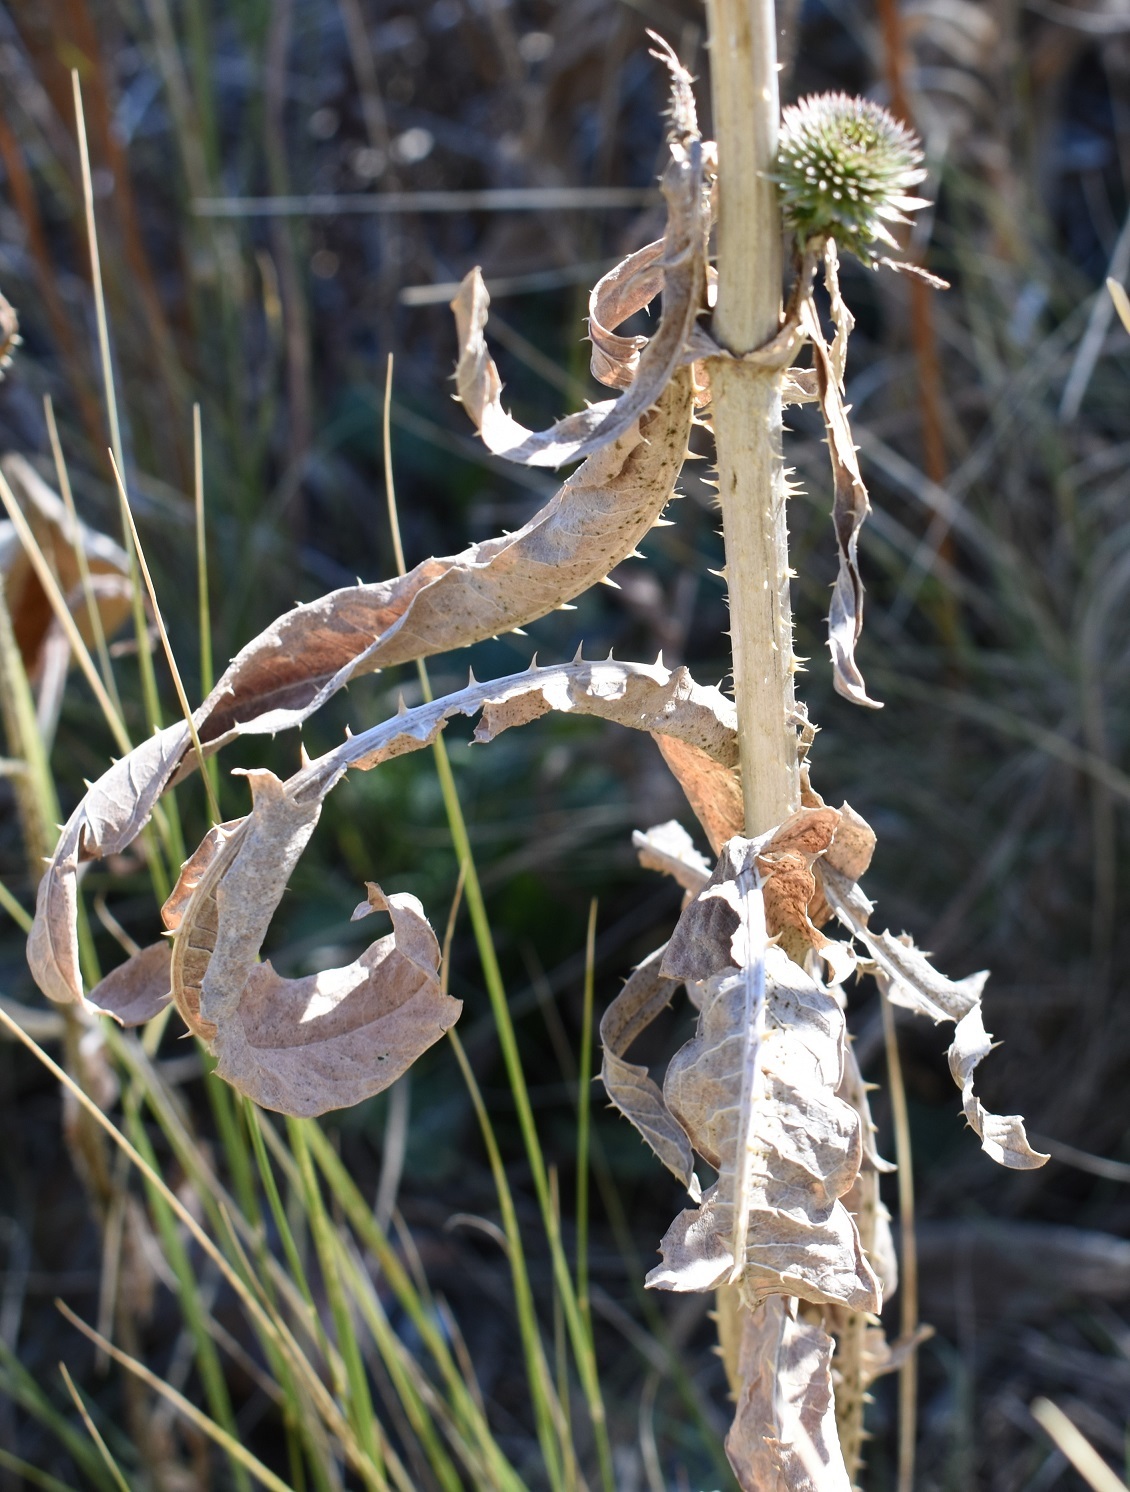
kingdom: Plantae
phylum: Tracheophyta
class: Magnoliopsida
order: Dipsacales
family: Caprifoliaceae
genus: Dipsacus
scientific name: Dipsacus fullonum
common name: Teasel
